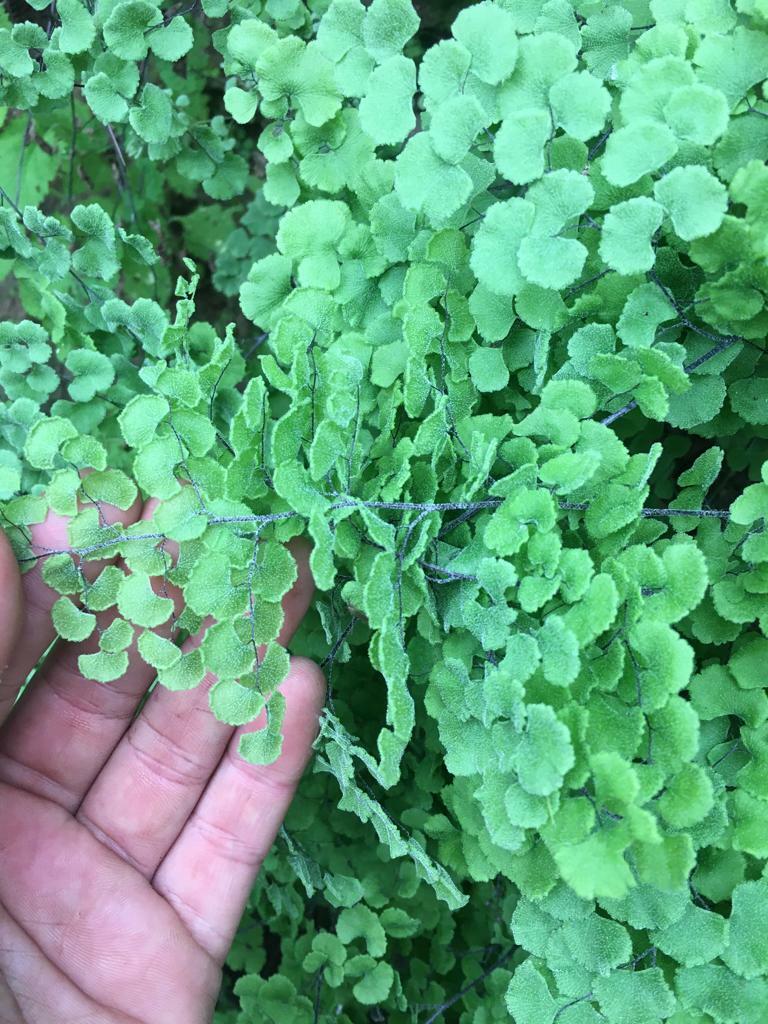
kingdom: Plantae
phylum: Tracheophyta
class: Polypodiopsida
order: Polypodiales
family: Pteridaceae
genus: Adiantum
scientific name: Adiantum chilense
